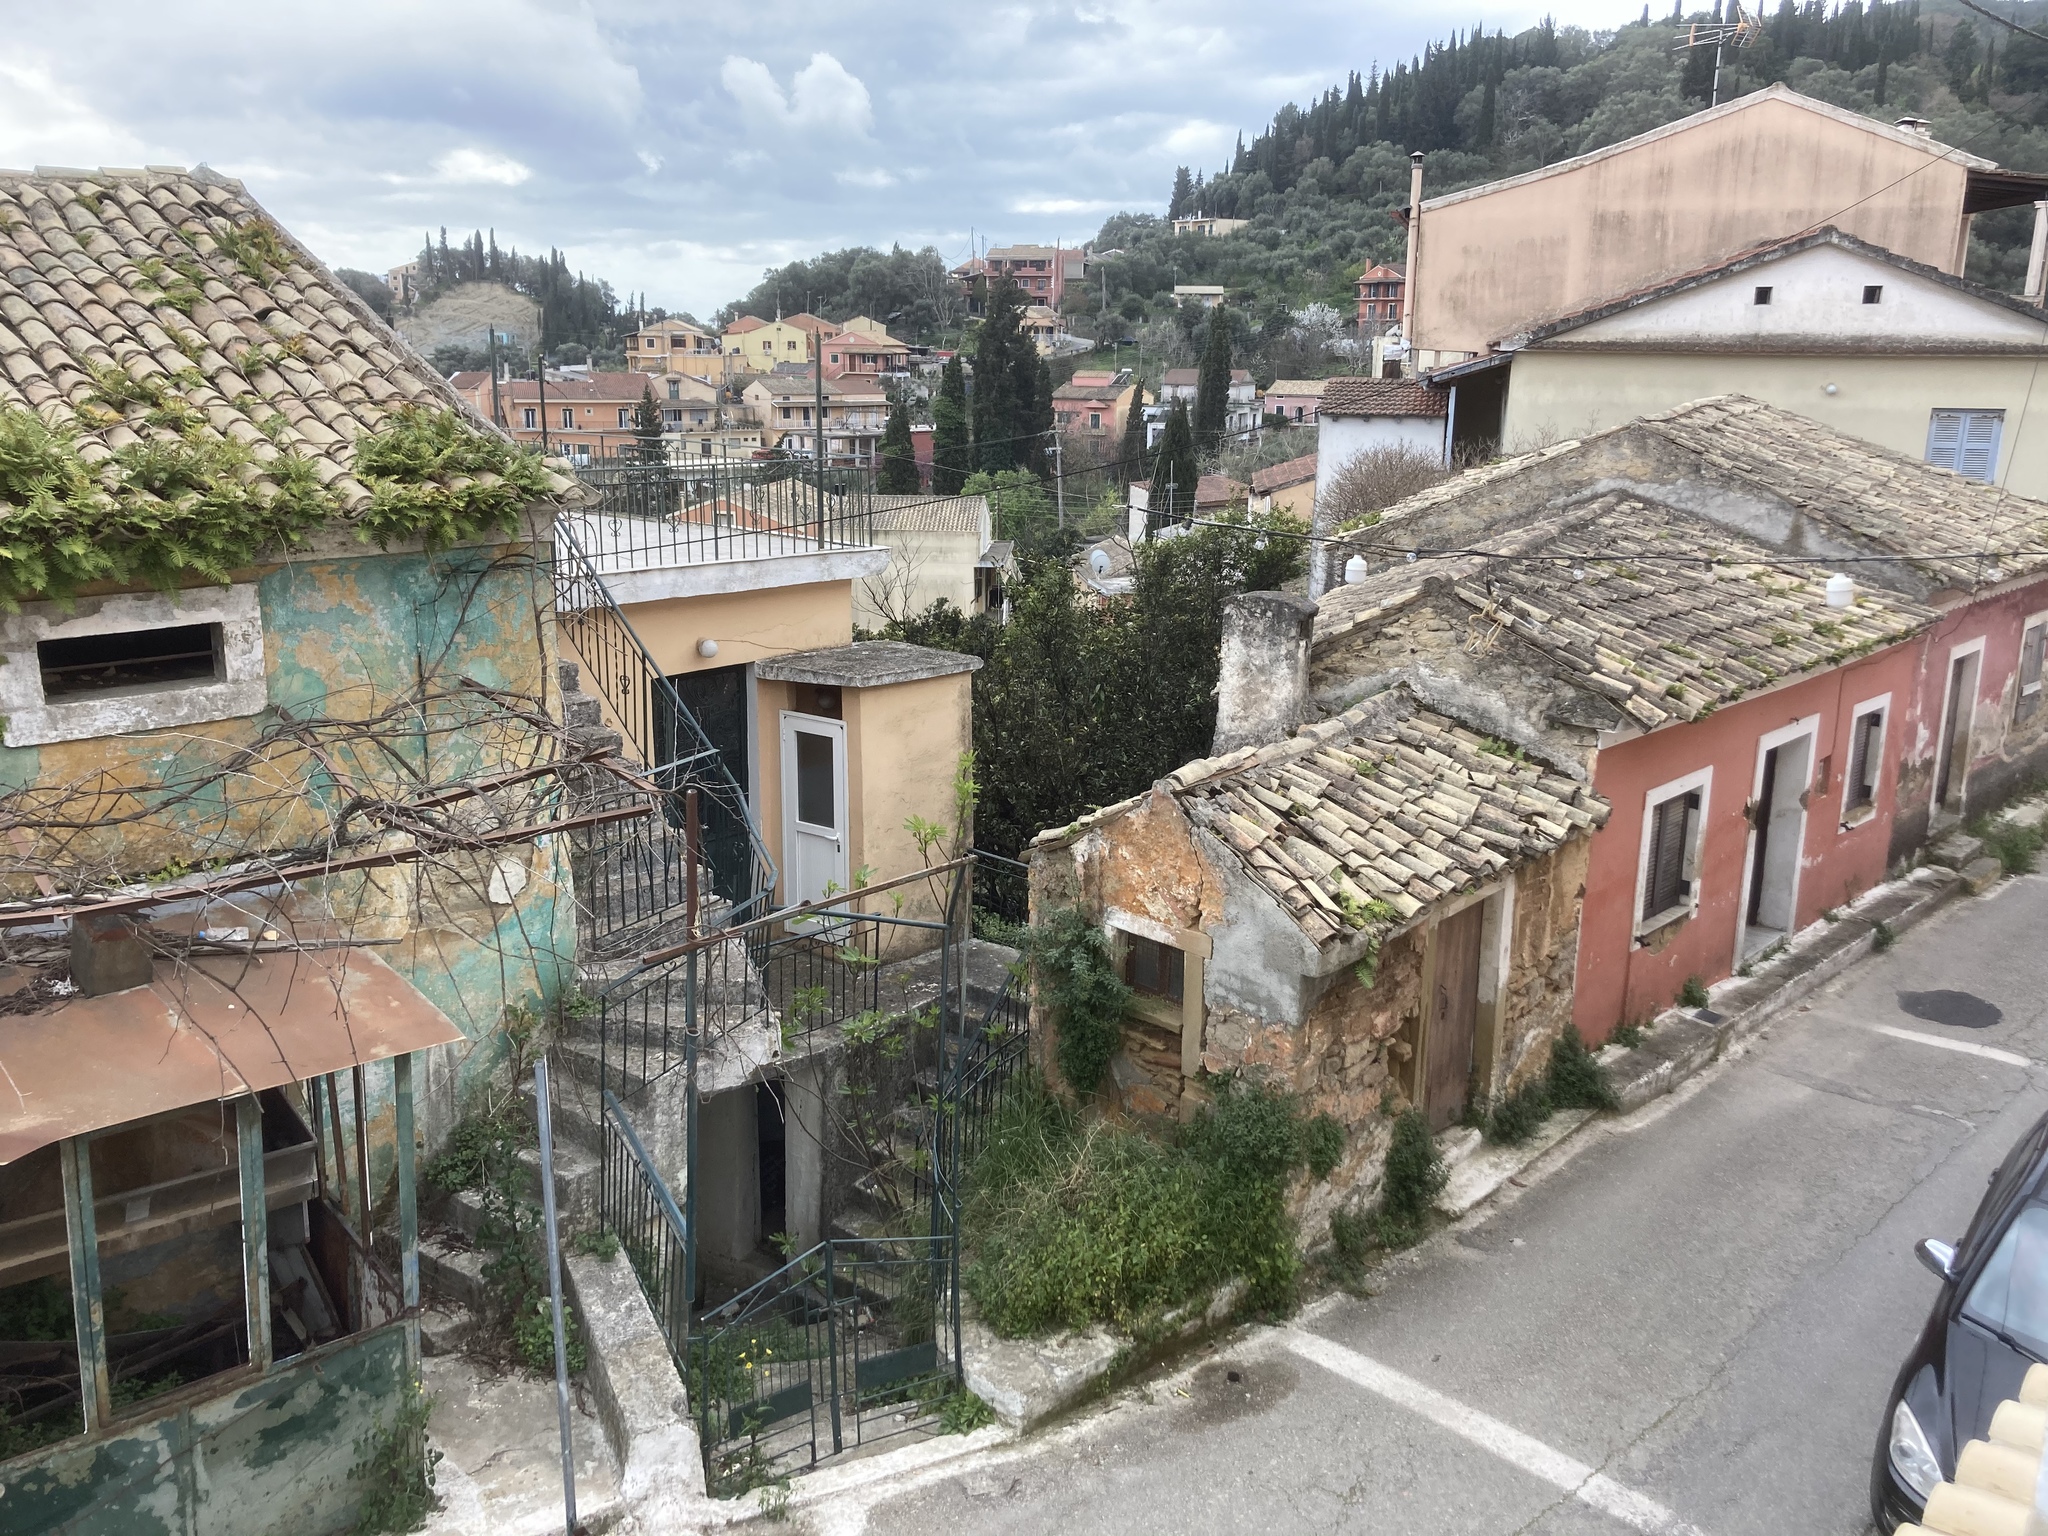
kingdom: Plantae
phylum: Tracheophyta
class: Polypodiopsida
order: Polypodiales
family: Polypodiaceae
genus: Polypodium
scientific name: Polypodium cambricum
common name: Southern polypody
